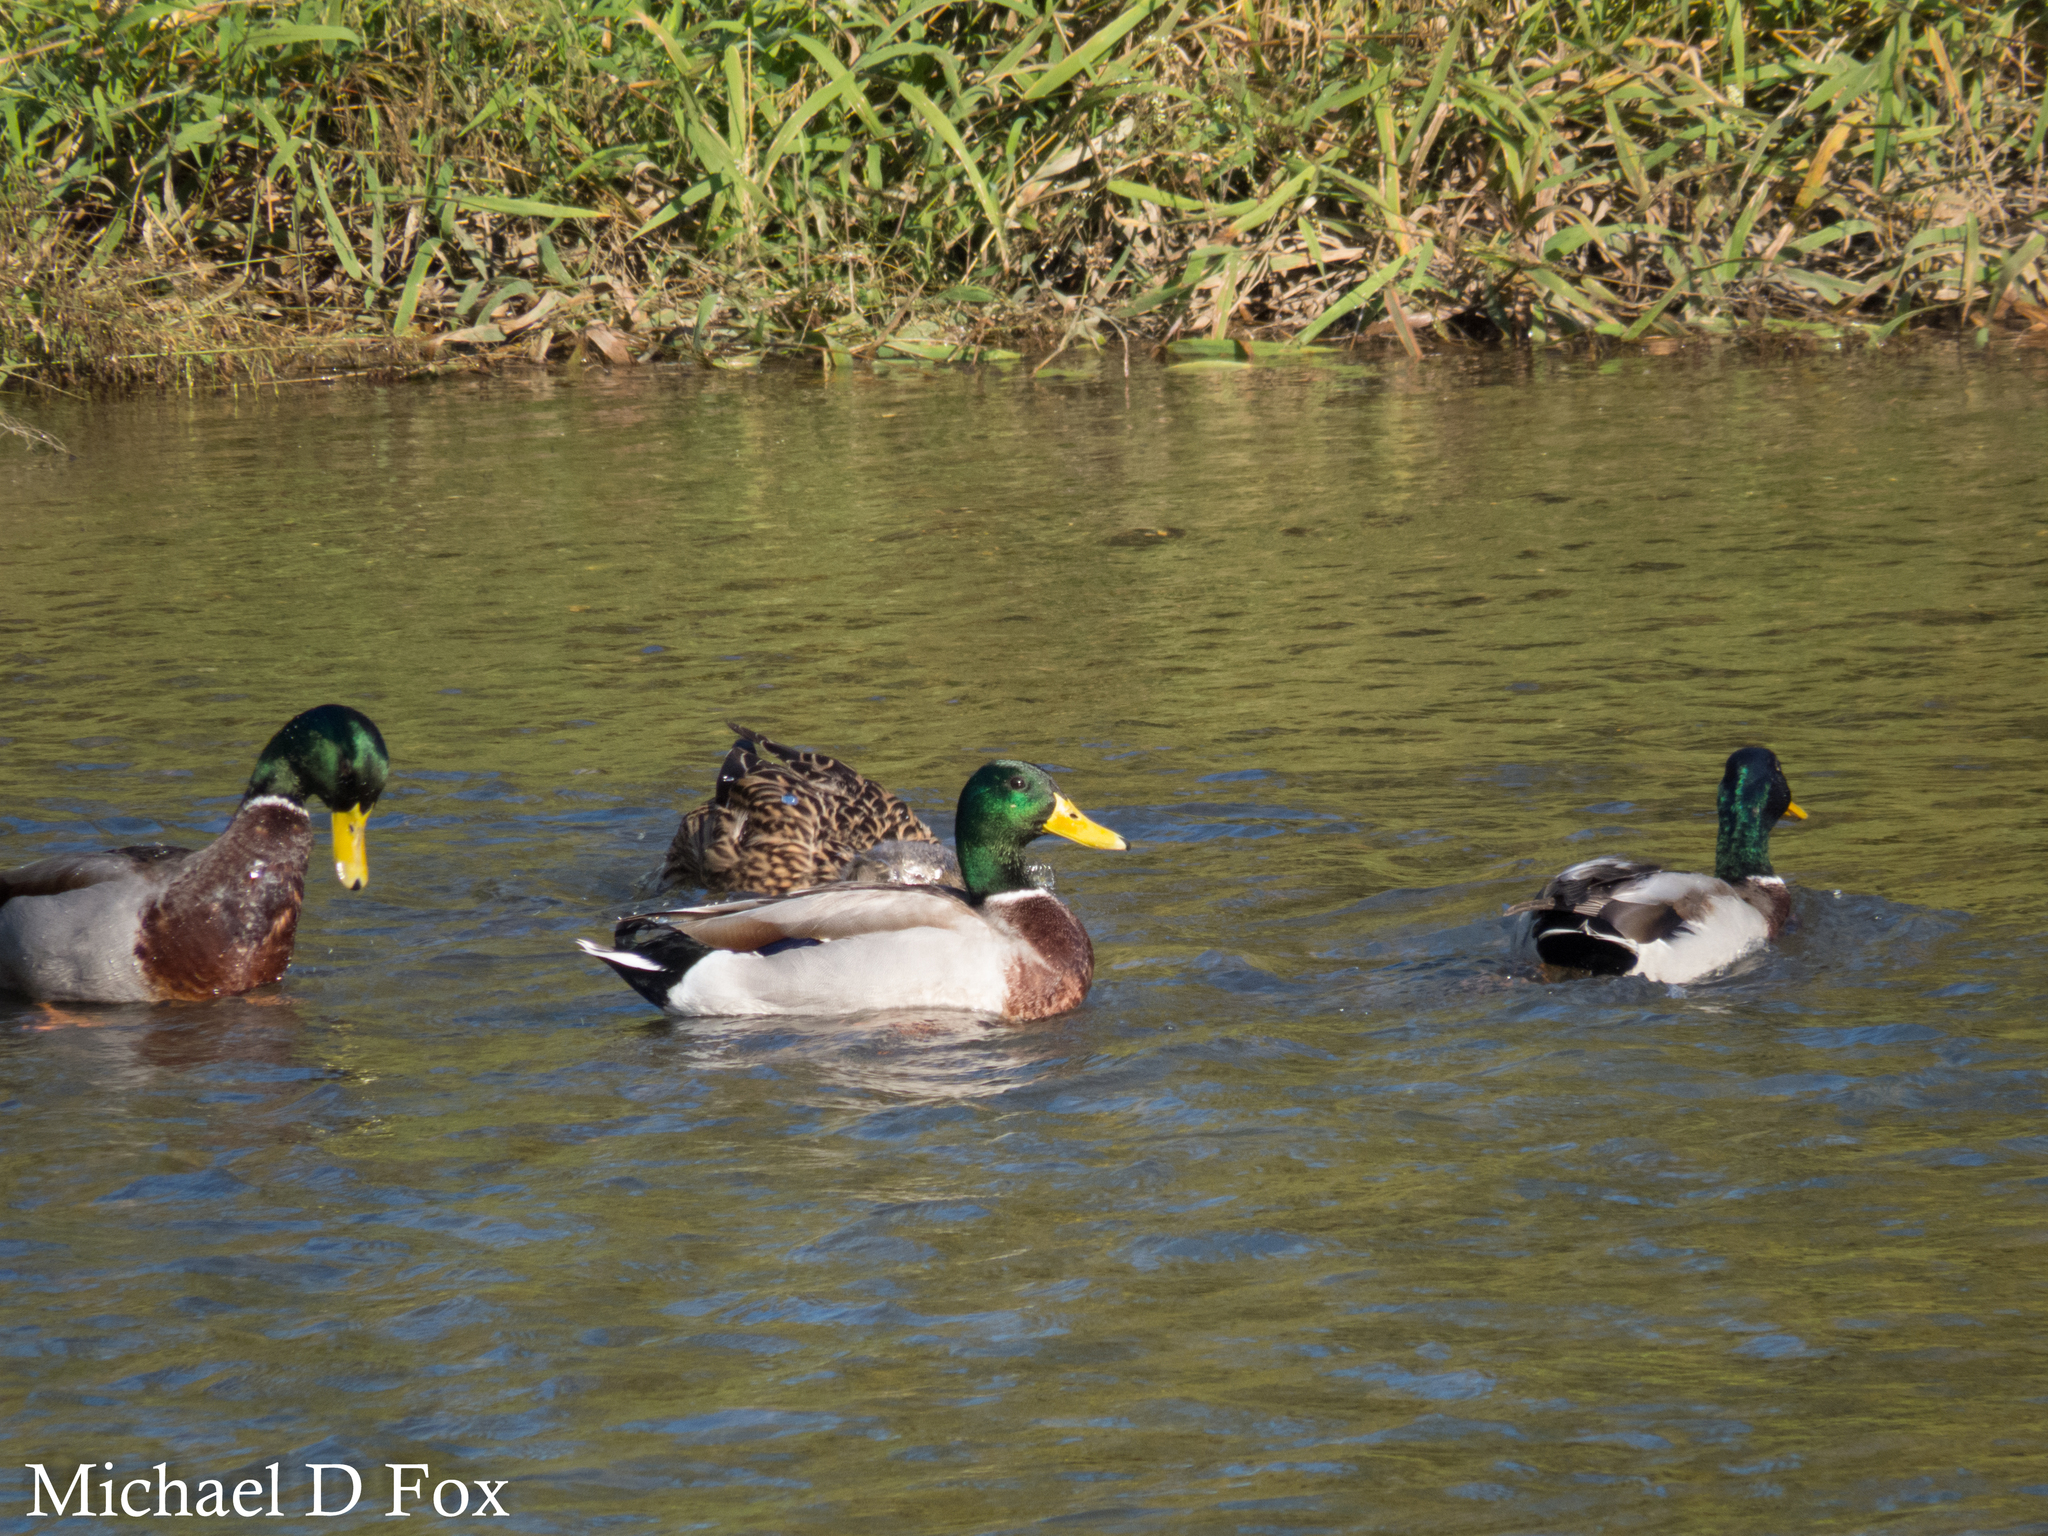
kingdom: Animalia
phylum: Chordata
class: Aves
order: Anseriformes
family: Anatidae
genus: Anas
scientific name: Anas platyrhynchos
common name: Mallard
